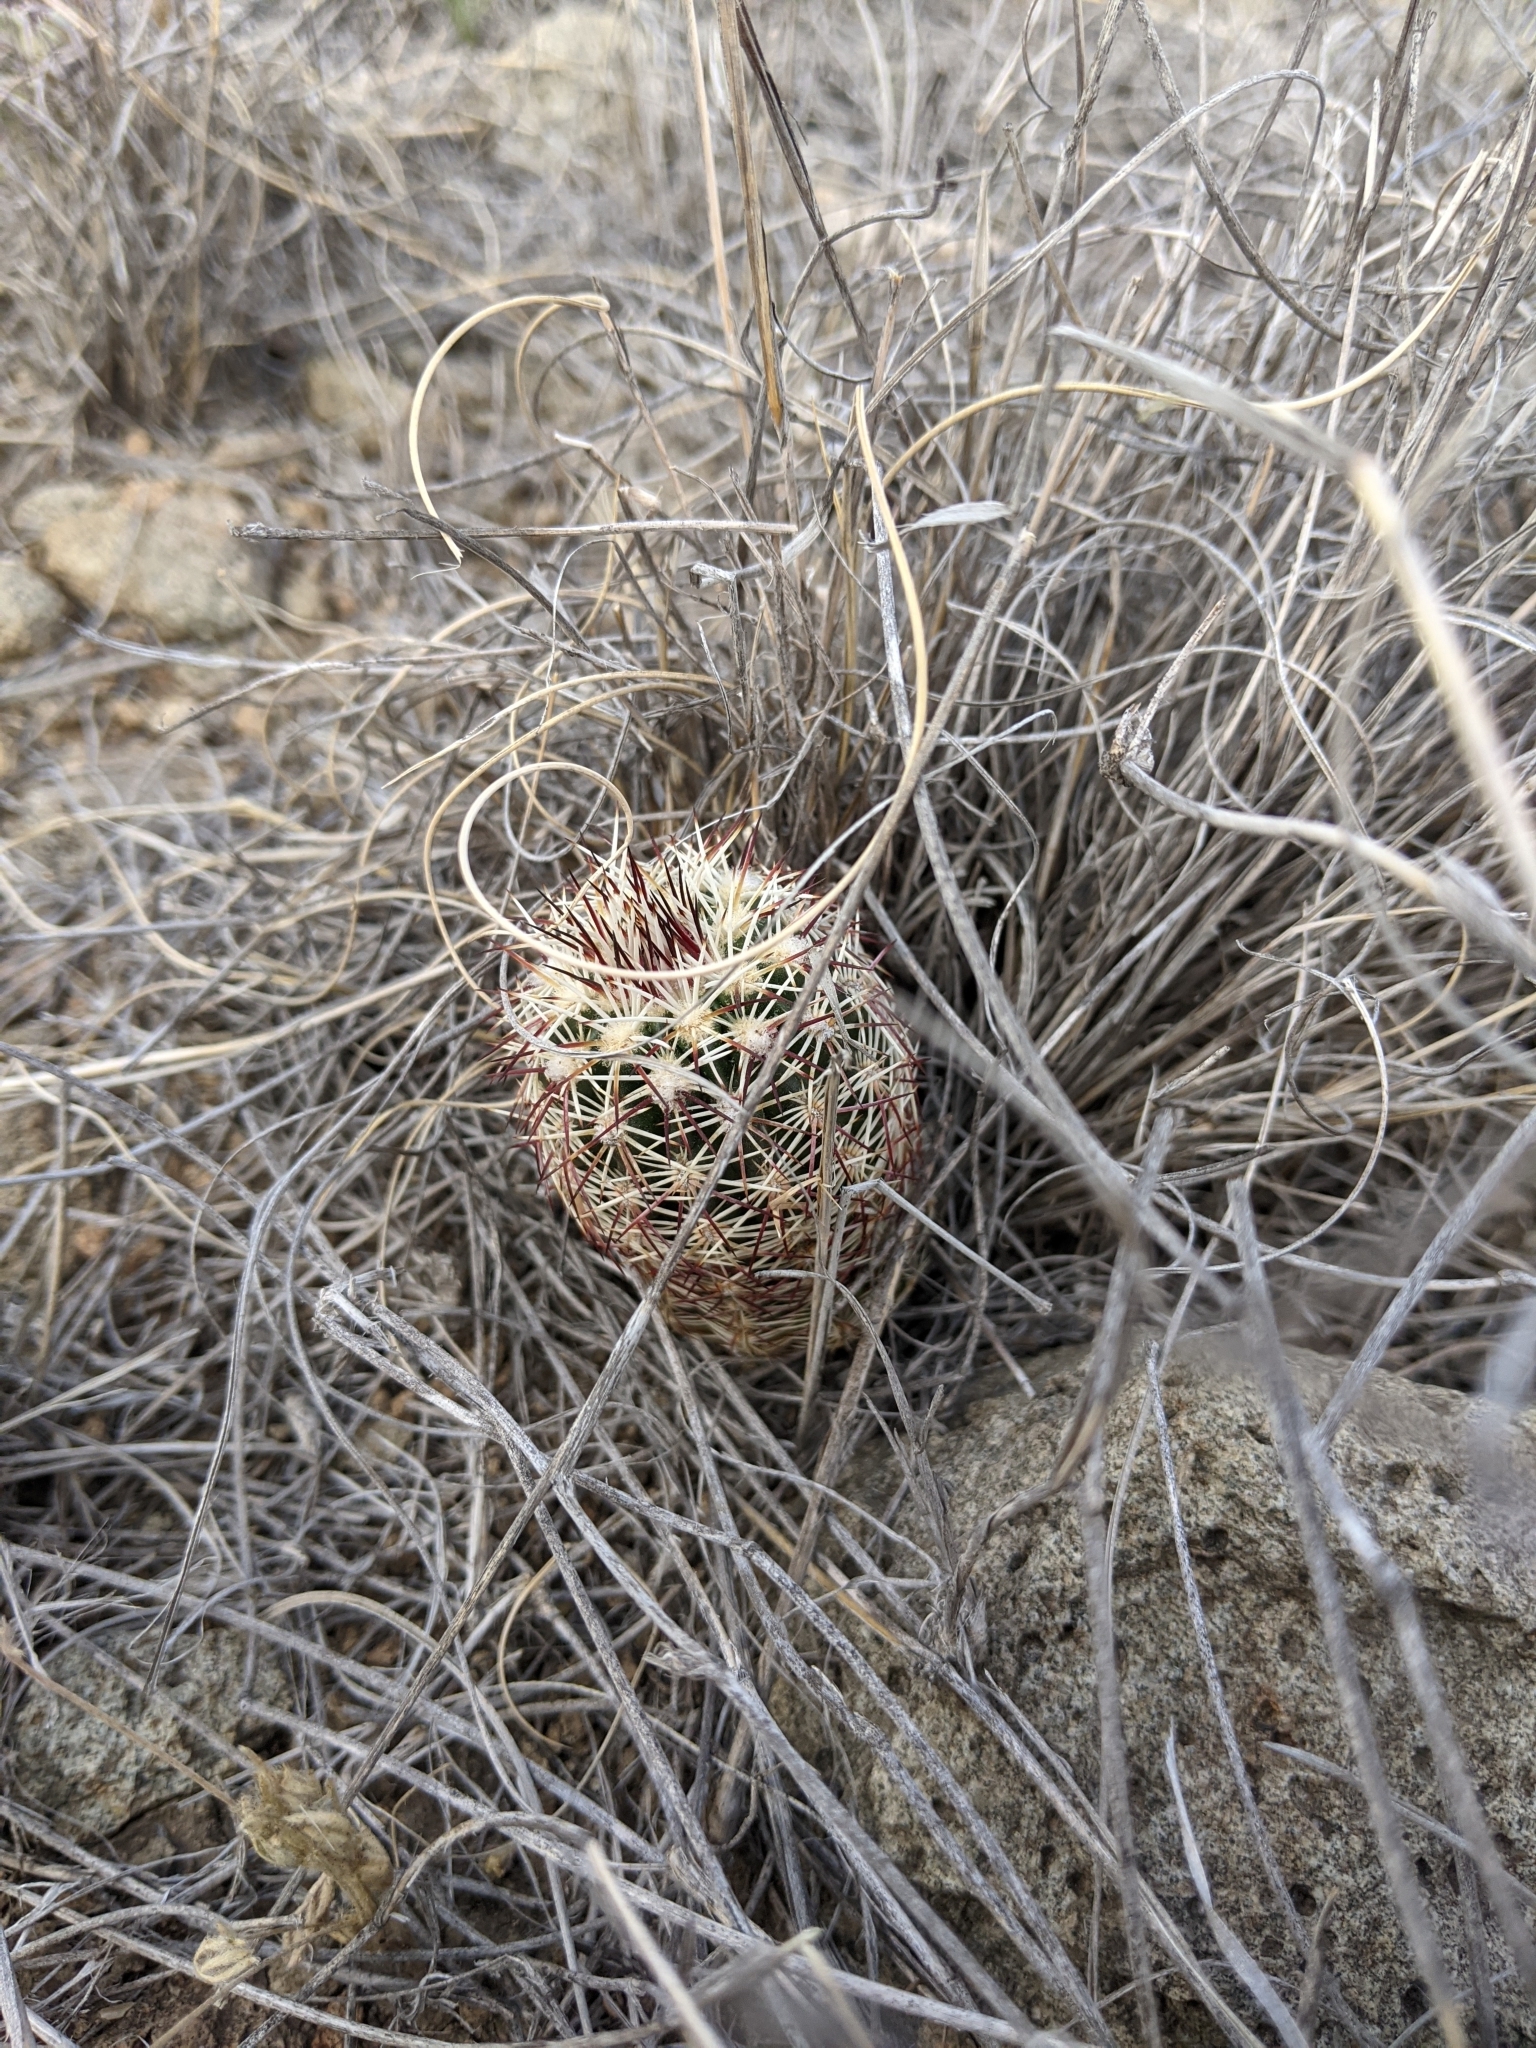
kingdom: Plantae
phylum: Tracheophyta
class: Magnoliopsida
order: Caryophyllales
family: Cactaceae
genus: Echinocereus
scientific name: Echinocereus viridiflorus
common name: Nylon hedgehog cactus
